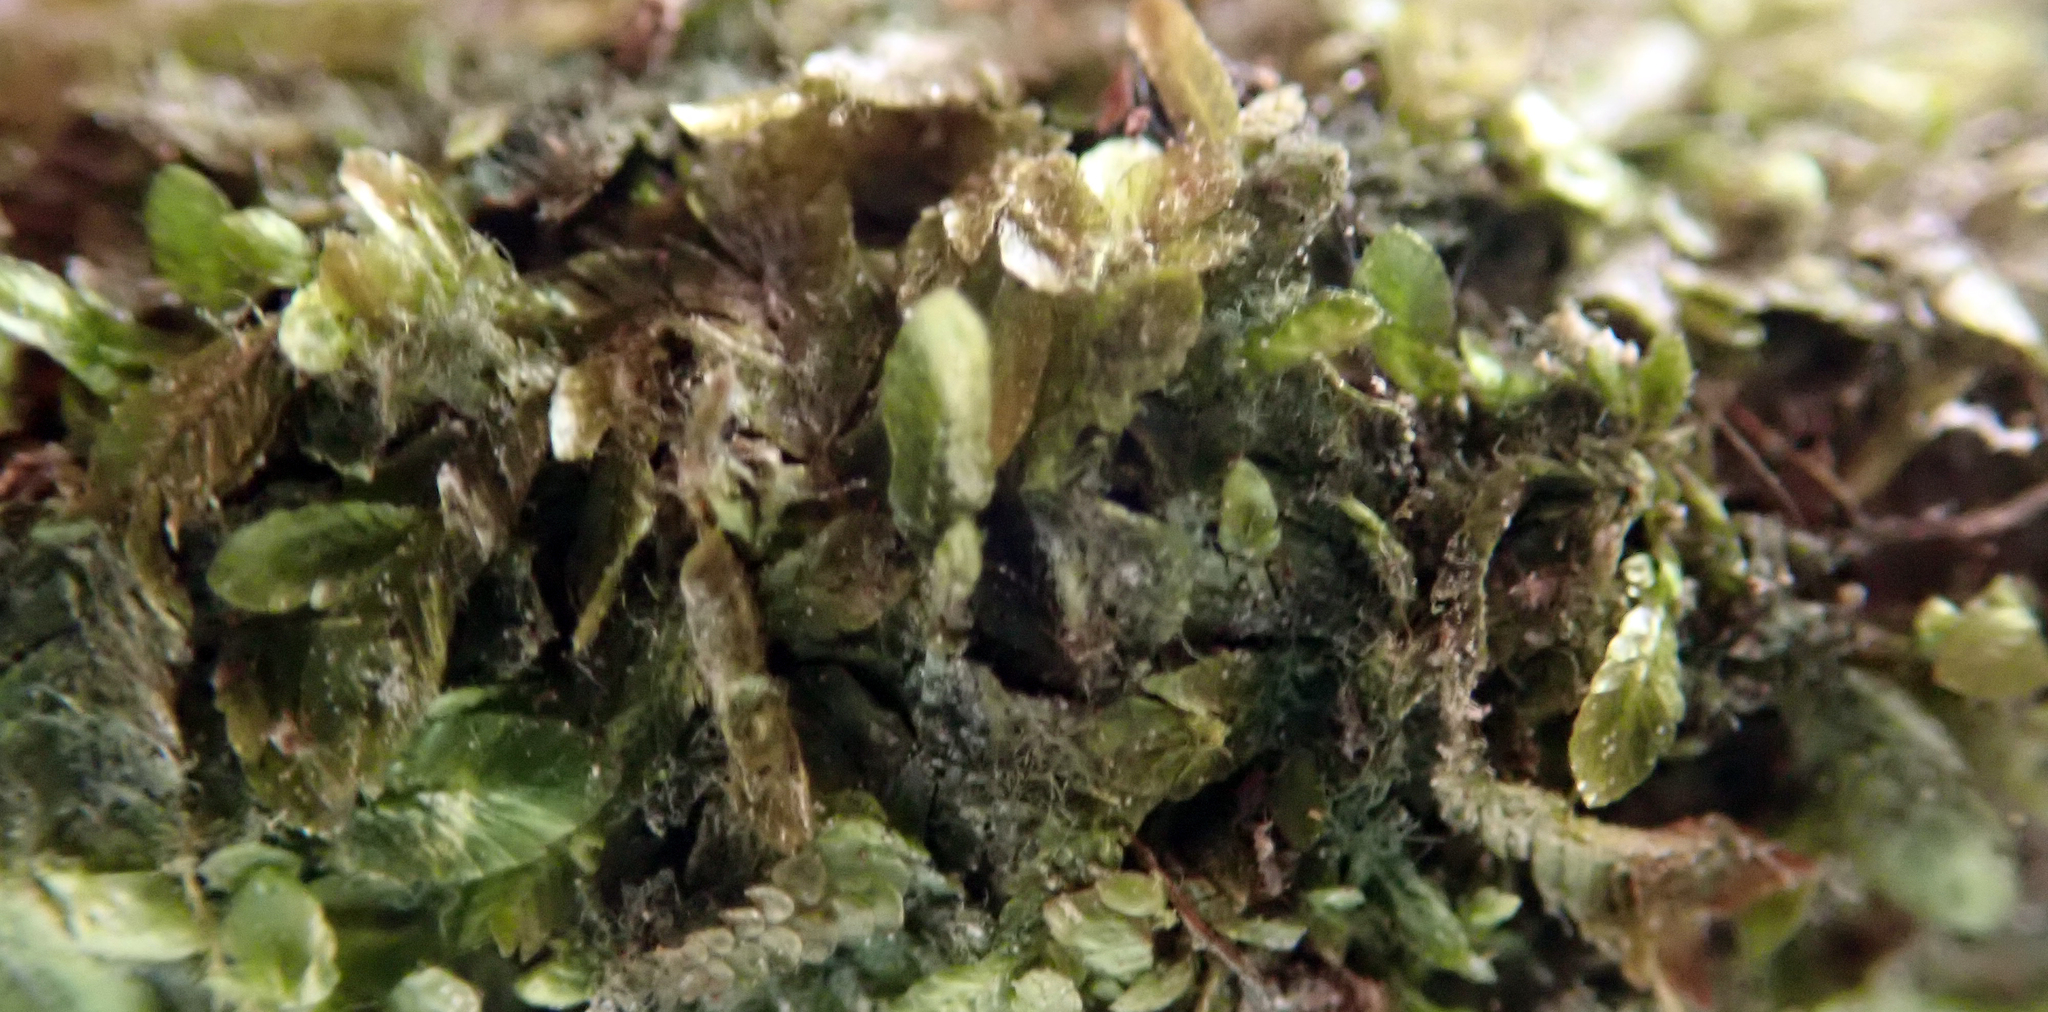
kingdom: Plantae
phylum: Bryophyta
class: Bryopsida
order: Ptychomniales
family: Orthorrhynchiaceae
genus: Orthorrhynchium
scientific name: Orthorrhynchium elegans
